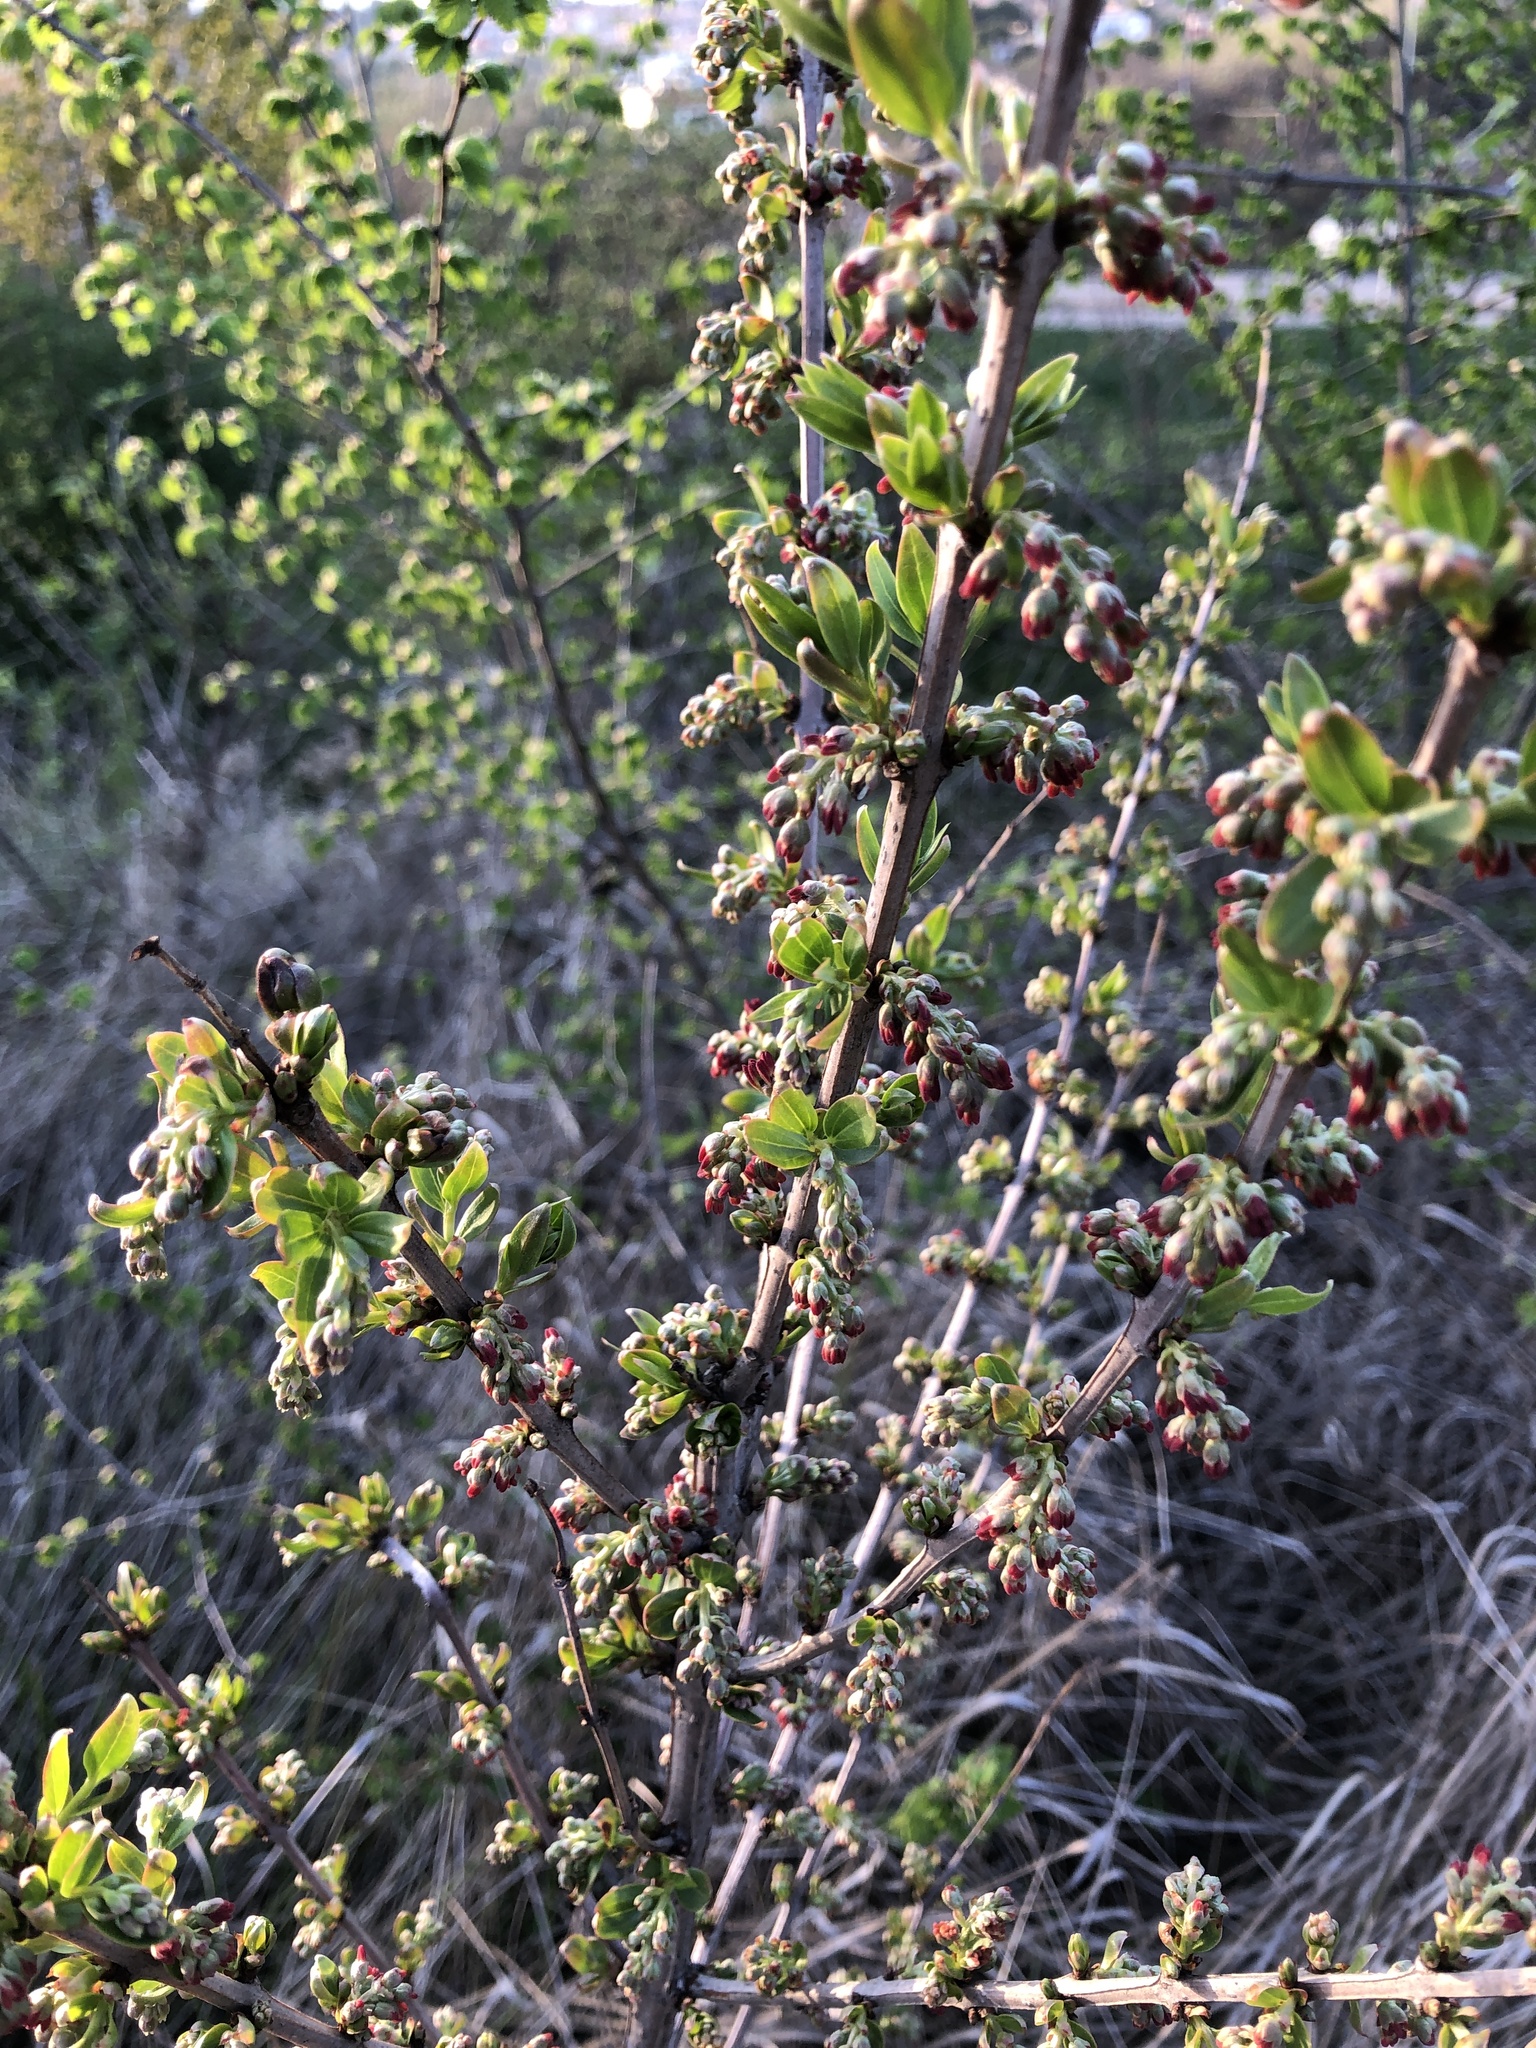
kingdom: Plantae
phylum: Tracheophyta
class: Magnoliopsida
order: Cucurbitales
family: Coriariaceae
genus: Coriaria
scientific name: Coriaria myrtifolia
